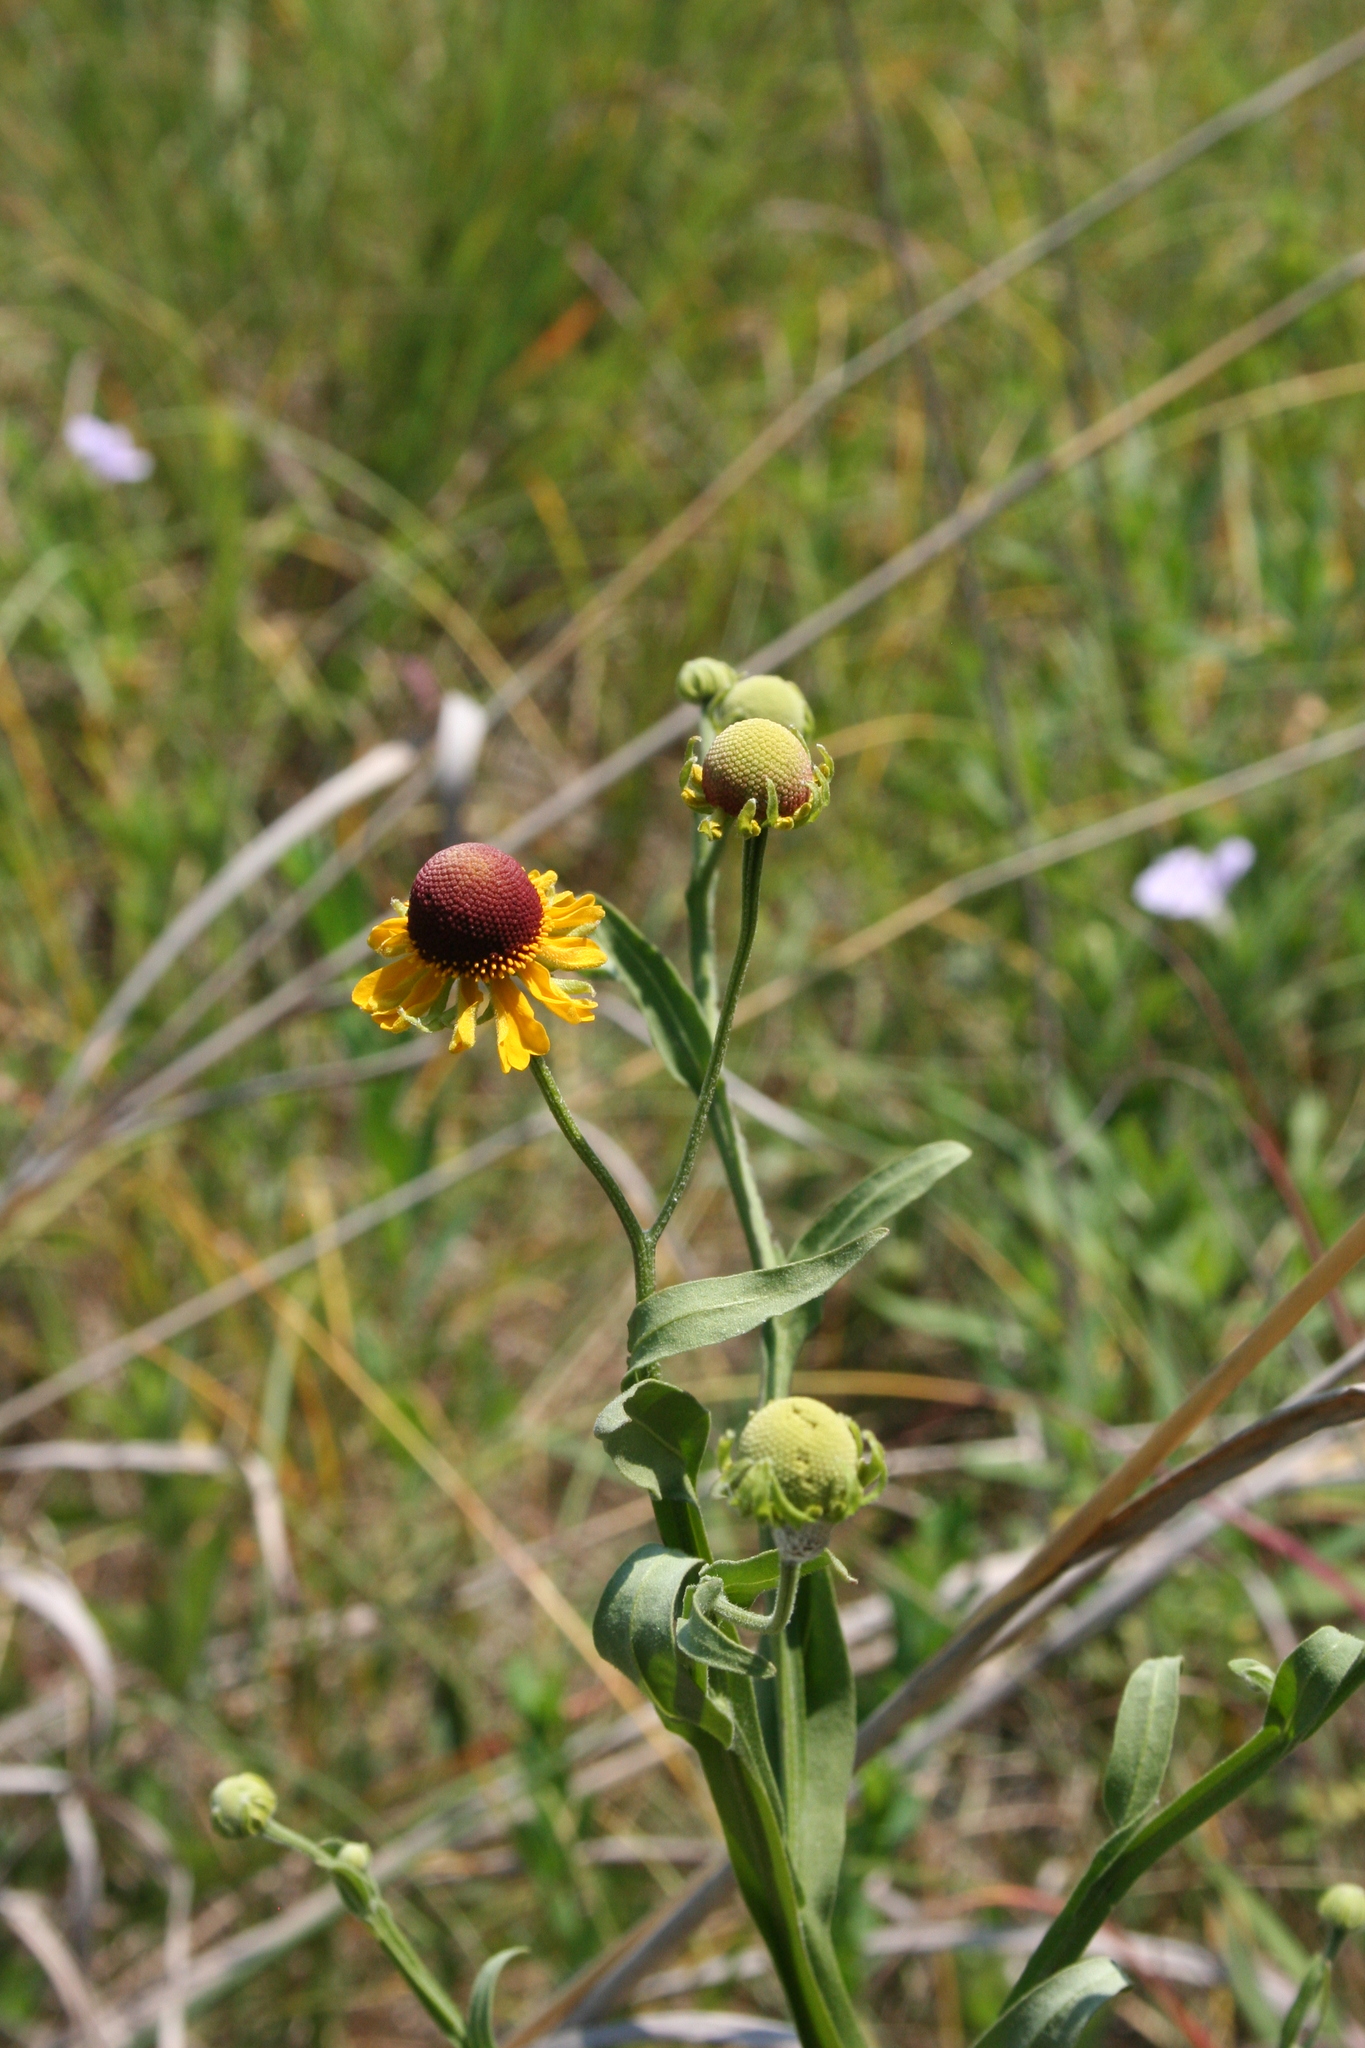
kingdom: Plantae
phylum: Tracheophyta
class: Magnoliopsida
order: Asterales
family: Asteraceae
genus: Helenium
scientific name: Helenium flexuosum
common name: Naked-flowered sneezeweed
